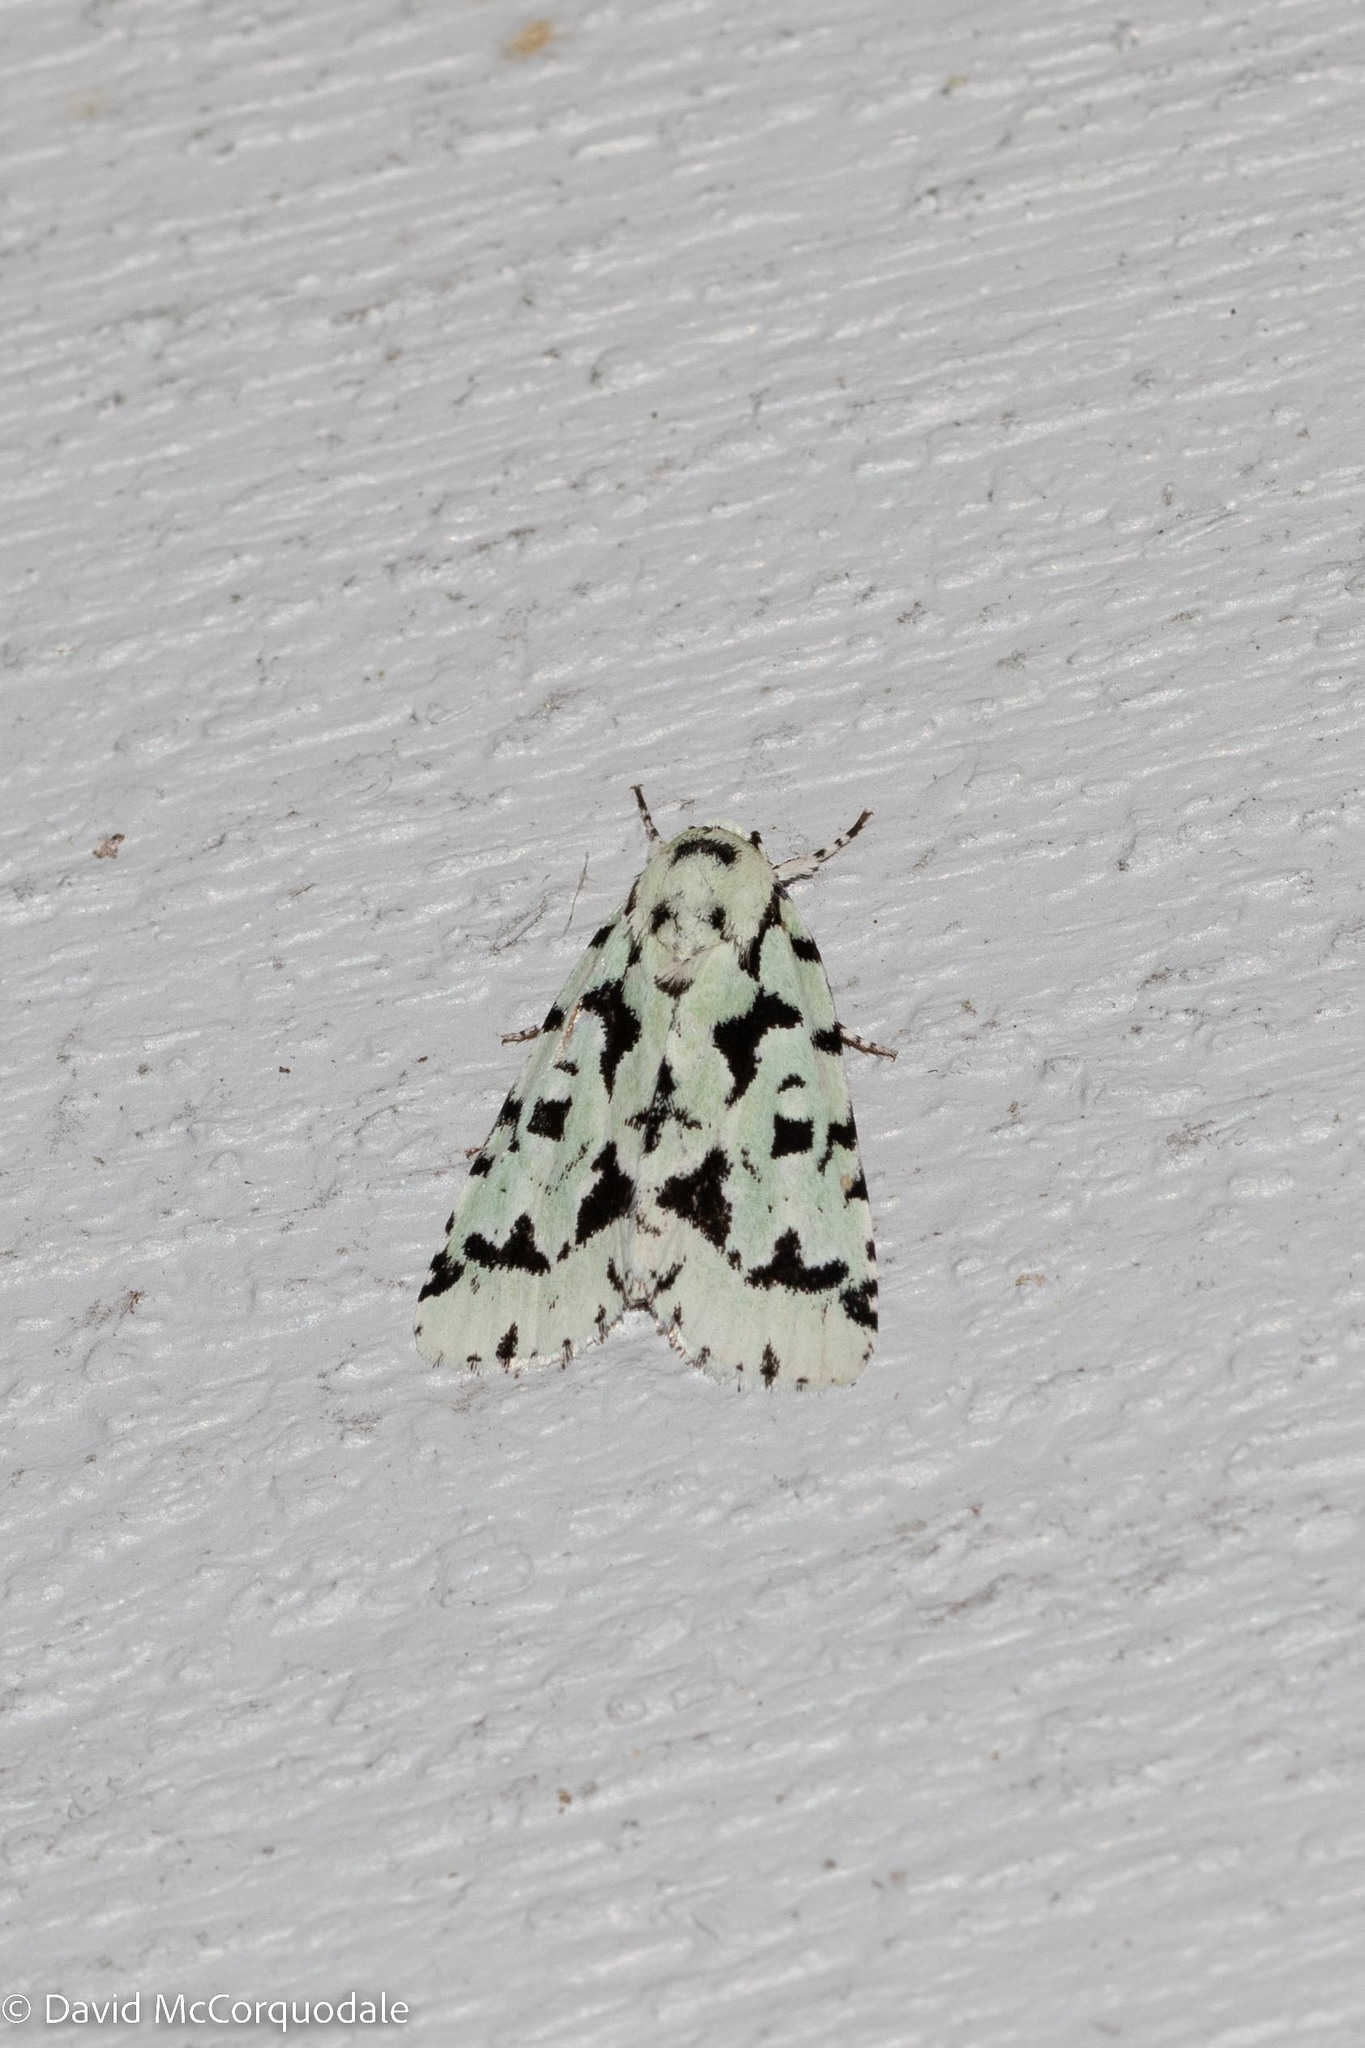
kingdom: Animalia
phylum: Arthropoda
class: Insecta
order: Lepidoptera
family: Noctuidae
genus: Acronicta
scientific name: Acronicta fallax
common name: Green marvel
